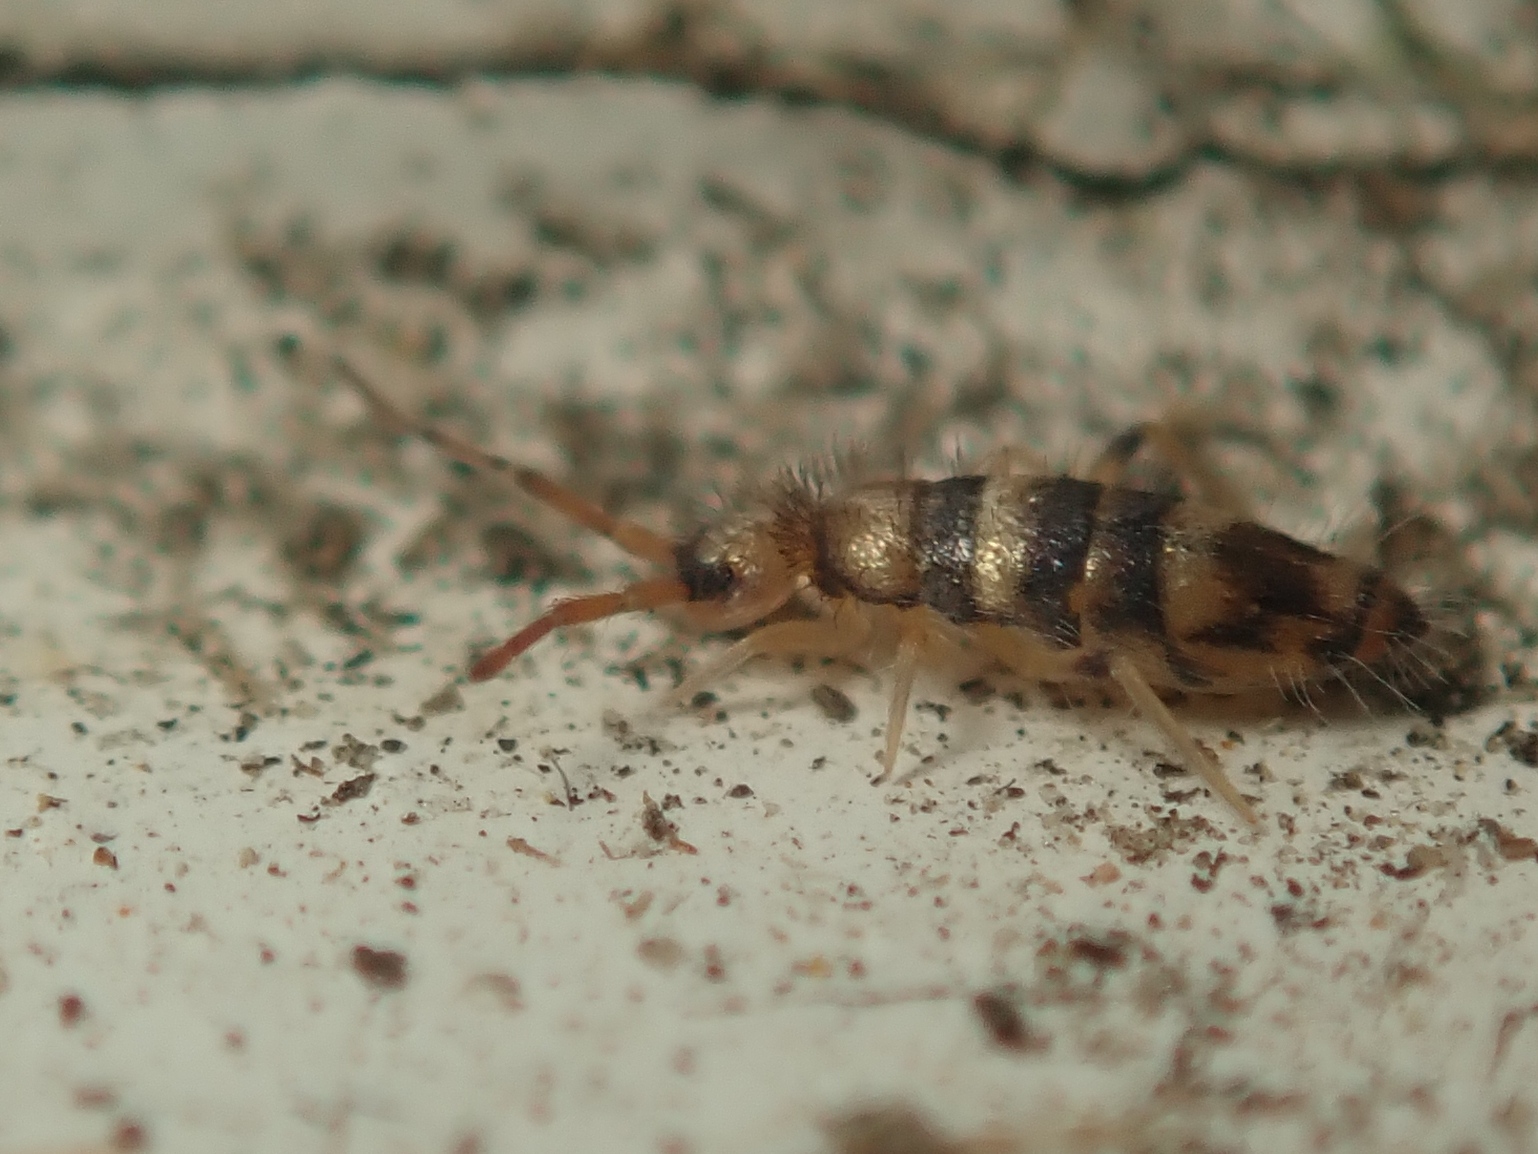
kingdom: Animalia
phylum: Arthropoda
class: Collembola
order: Entomobryomorpha
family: Entomobryidae
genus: Willowsia
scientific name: Willowsia platani
